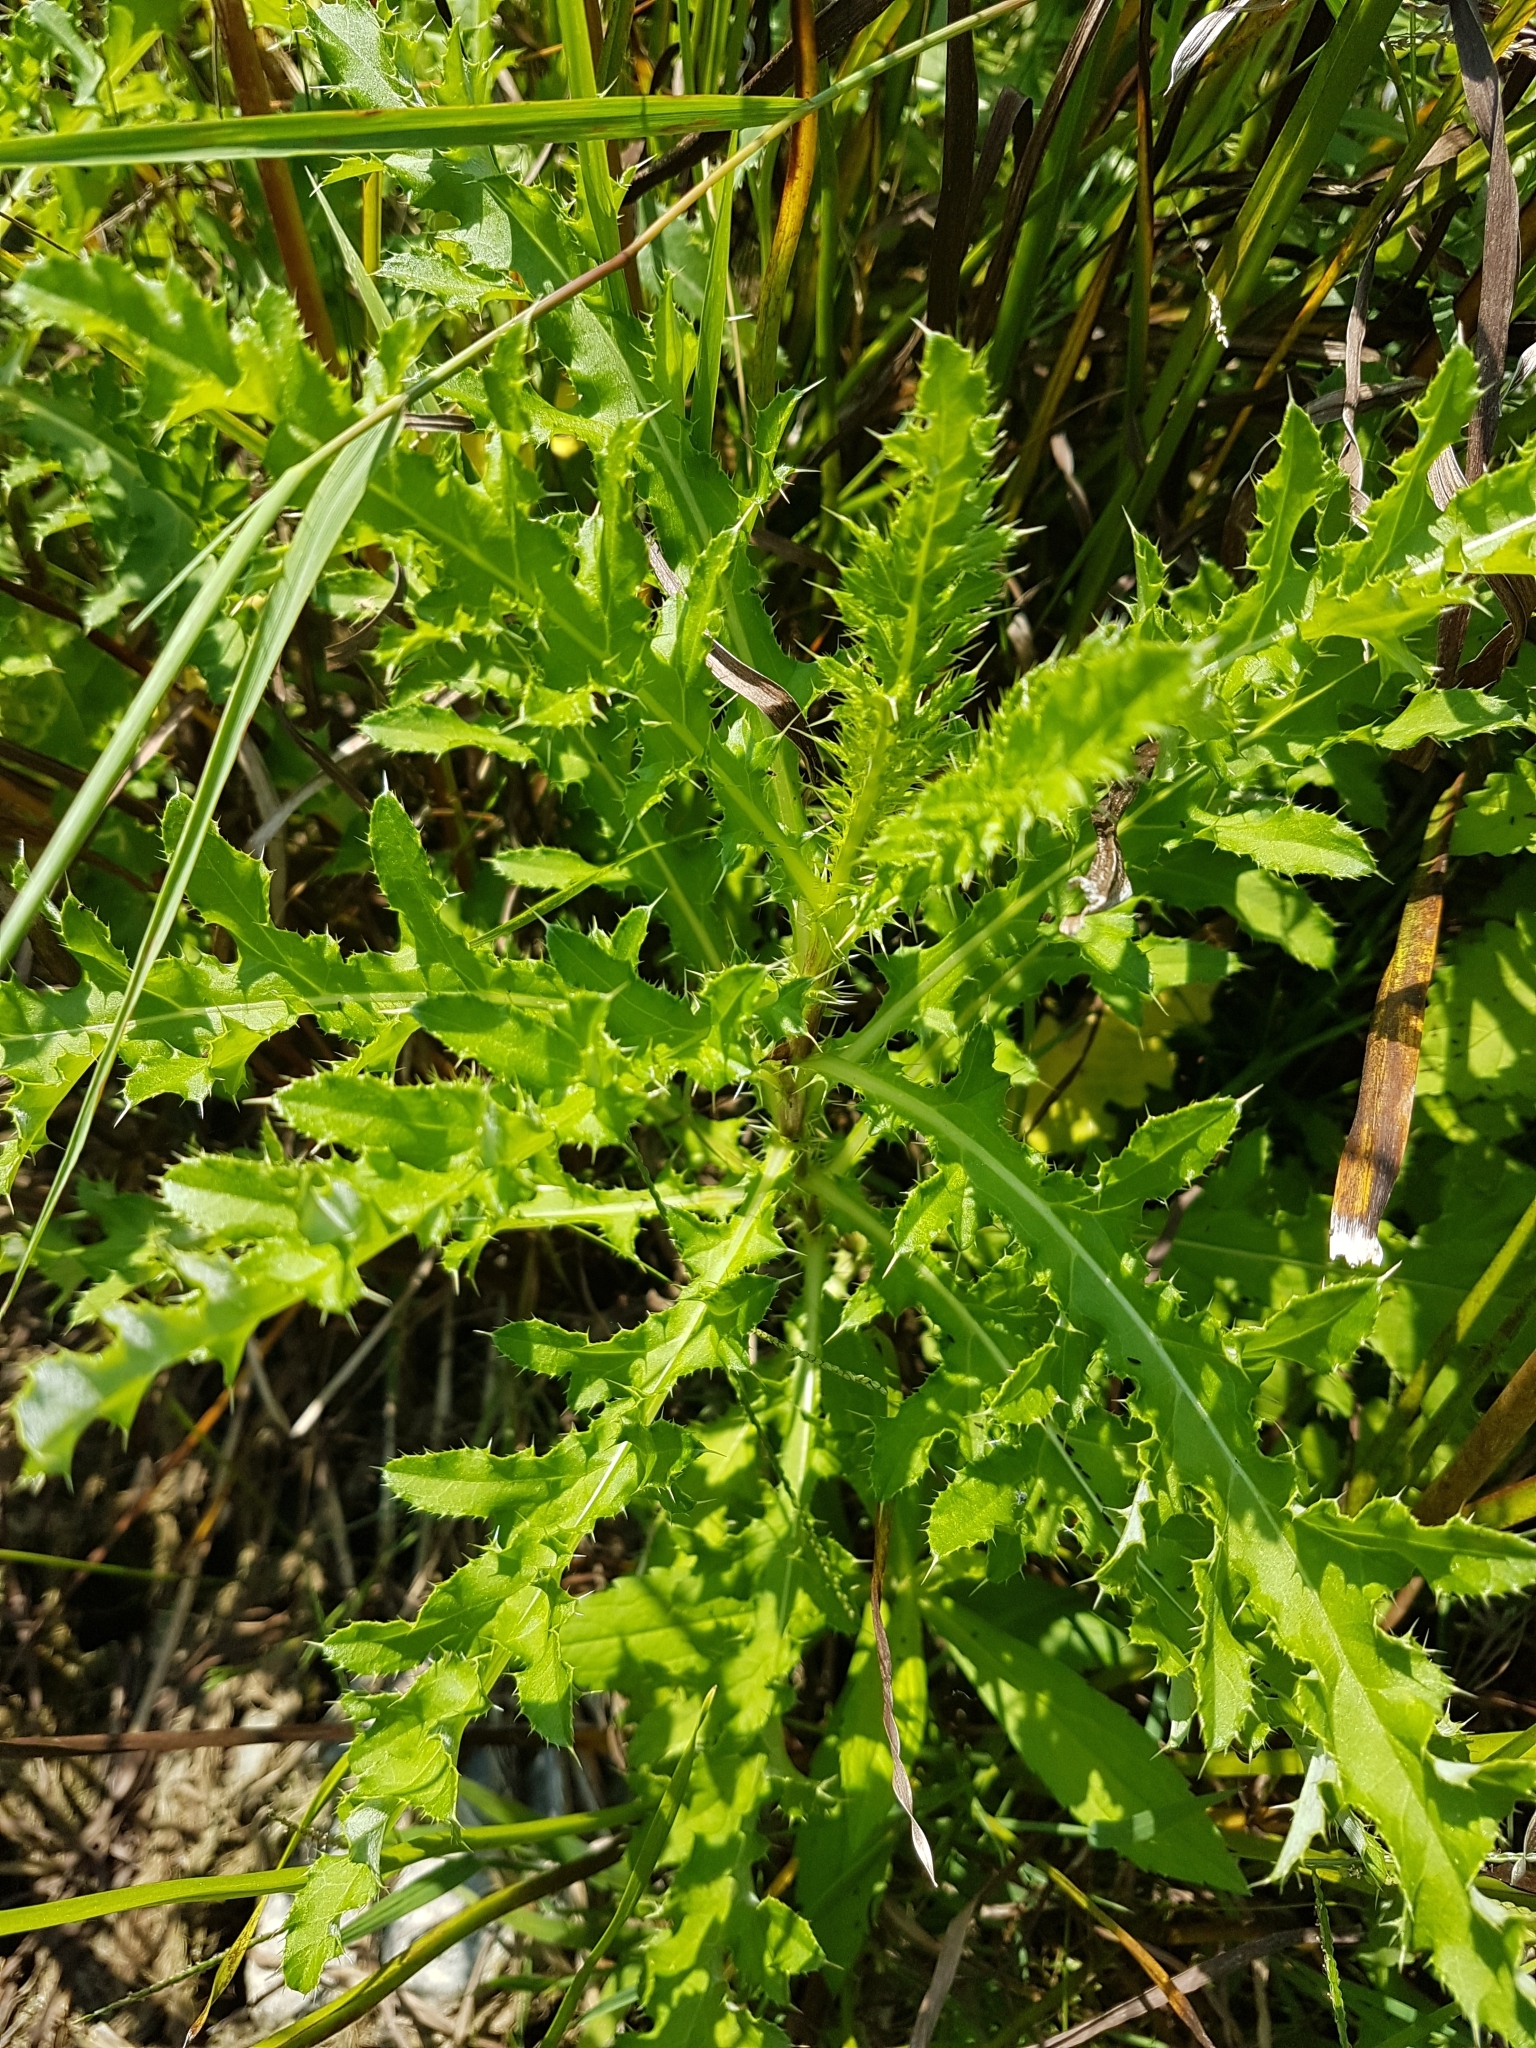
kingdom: Plantae
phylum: Tracheophyta
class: Magnoliopsida
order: Asterales
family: Asteraceae
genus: Cirsium
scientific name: Cirsium arvense
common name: Creeping thistle
